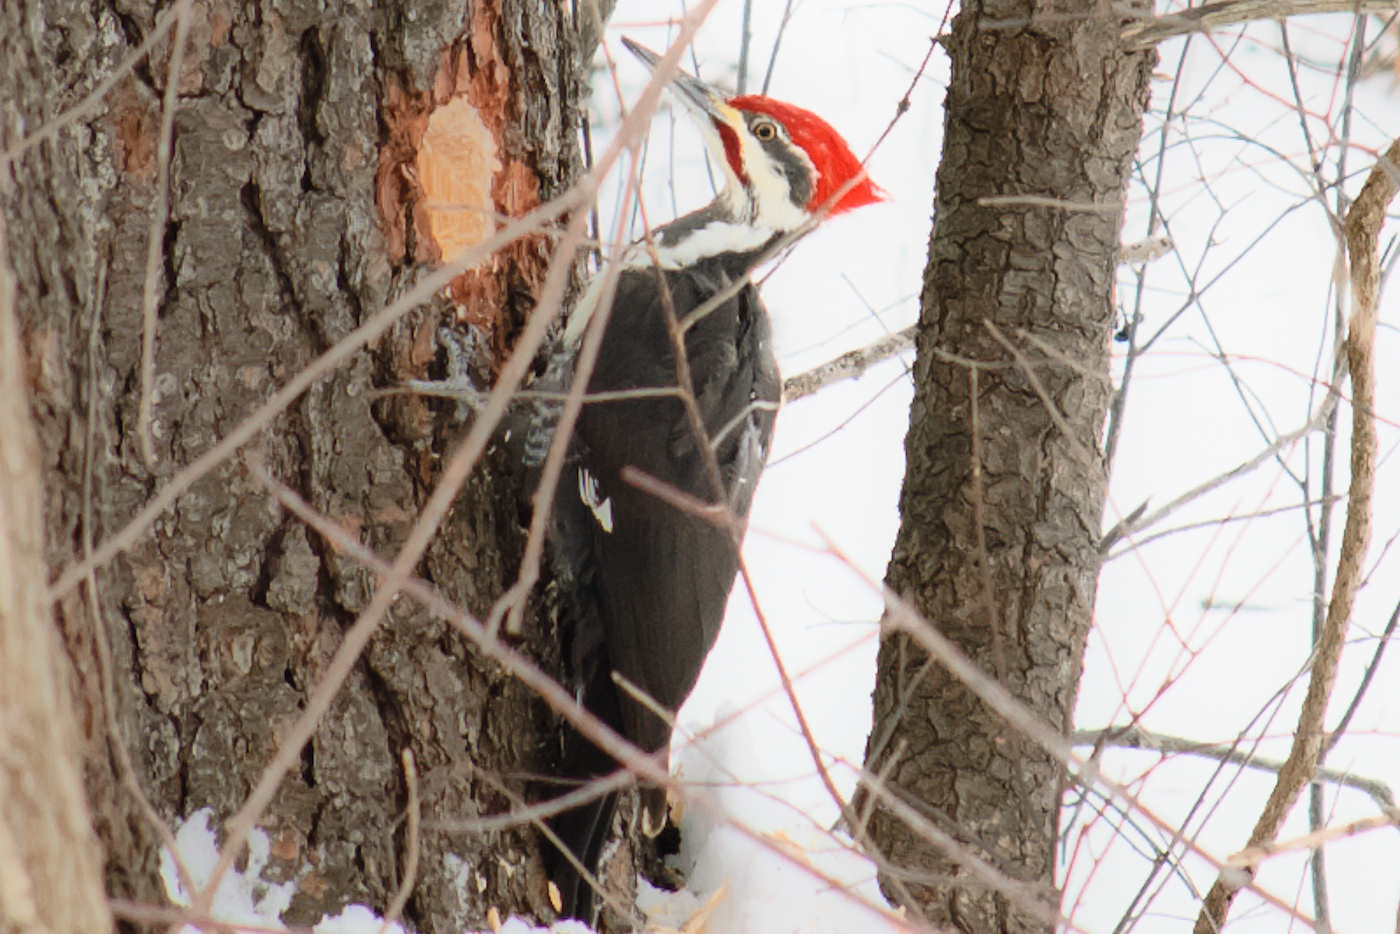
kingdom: Animalia
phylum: Chordata
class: Aves
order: Piciformes
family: Picidae
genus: Dryocopus
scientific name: Dryocopus pileatus
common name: Pileated woodpecker
